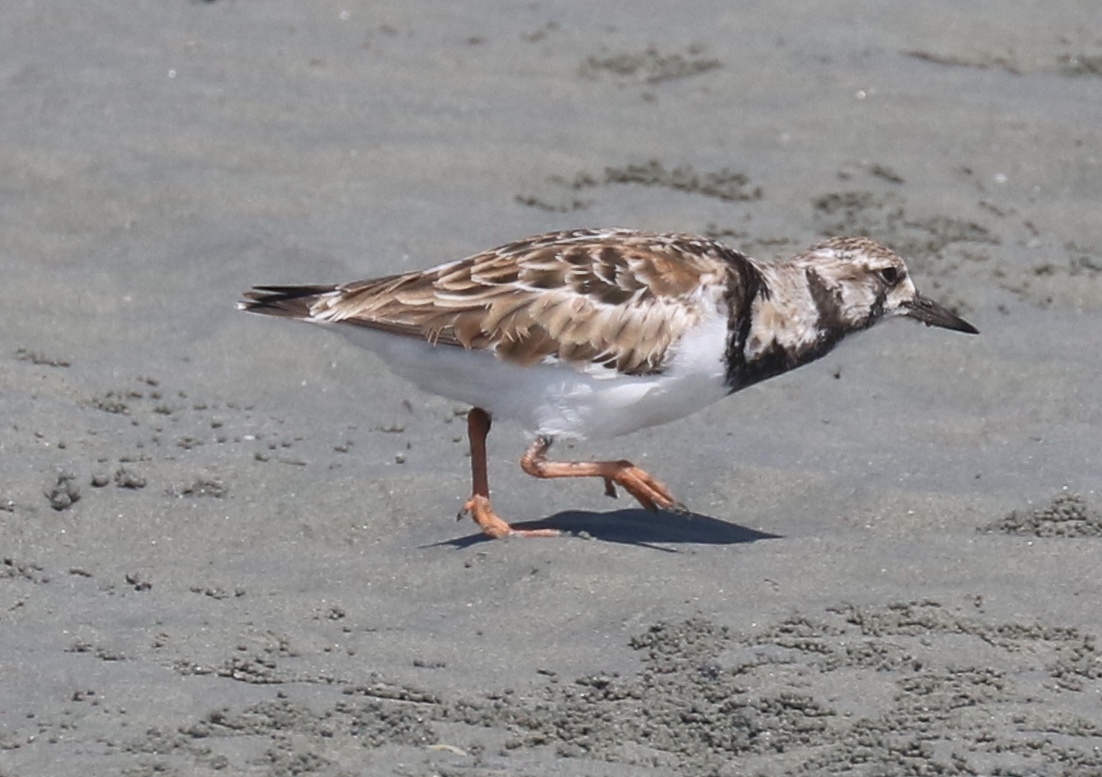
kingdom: Animalia
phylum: Chordata
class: Aves
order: Charadriiformes
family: Scolopacidae
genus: Arenaria
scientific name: Arenaria interpres
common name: Ruddy turnstone
